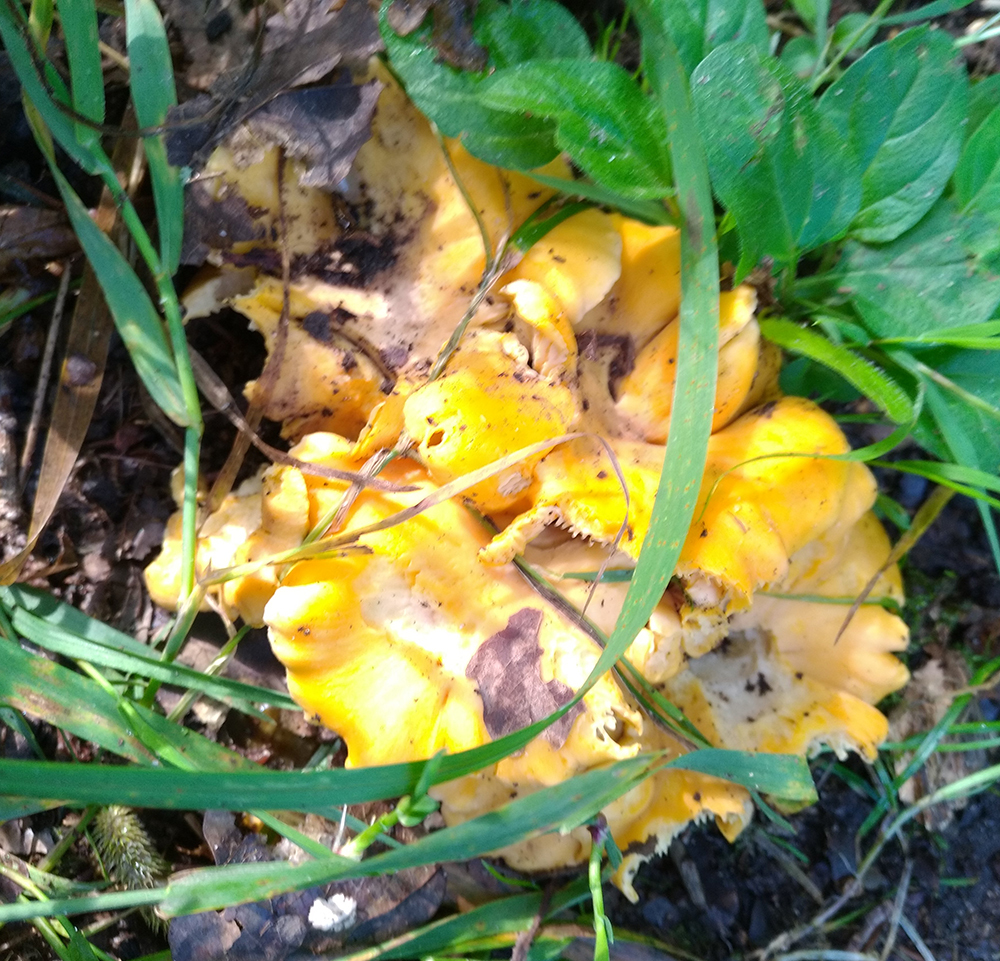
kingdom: Fungi
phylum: Basidiomycota
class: Agaricomycetes
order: Cantharellales
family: Hydnaceae
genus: Cantharellus
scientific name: Cantharellus cibarius
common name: Chanterelle
